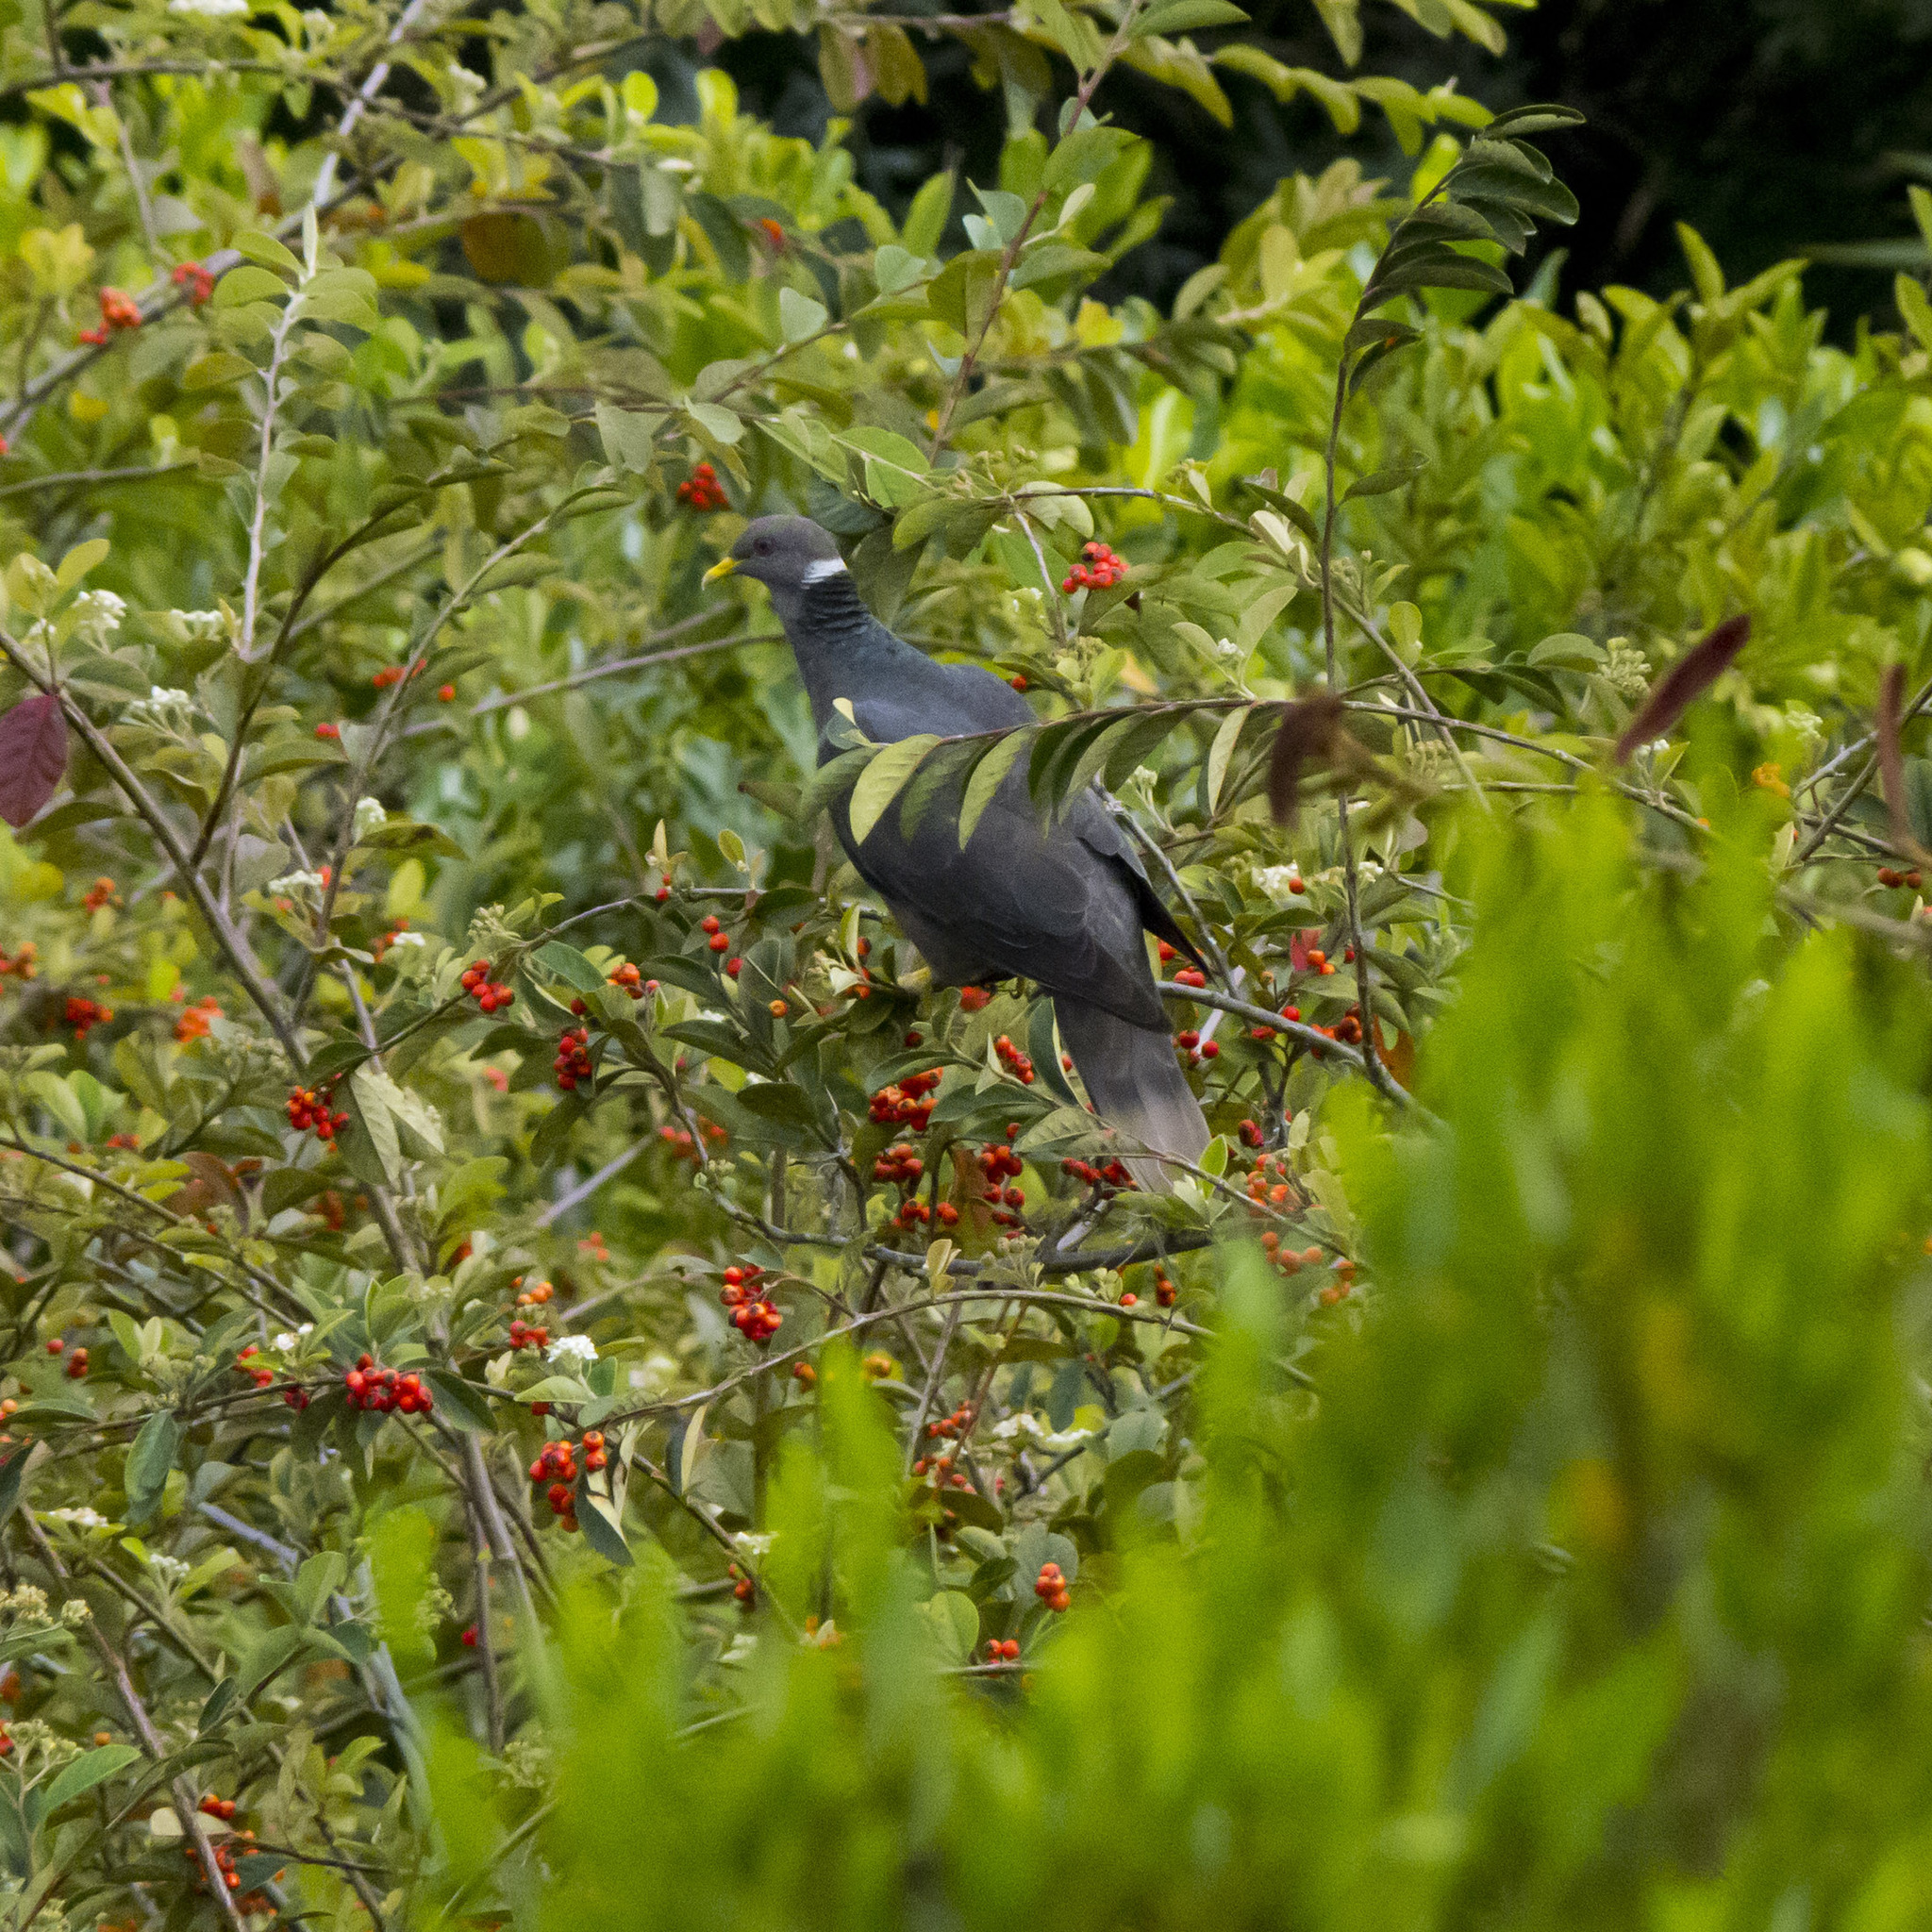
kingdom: Animalia
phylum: Chordata
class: Aves
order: Columbiformes
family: Columbidae
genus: Patagioenas
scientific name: Patagioenas fasciata
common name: Band-tailed pigeon
